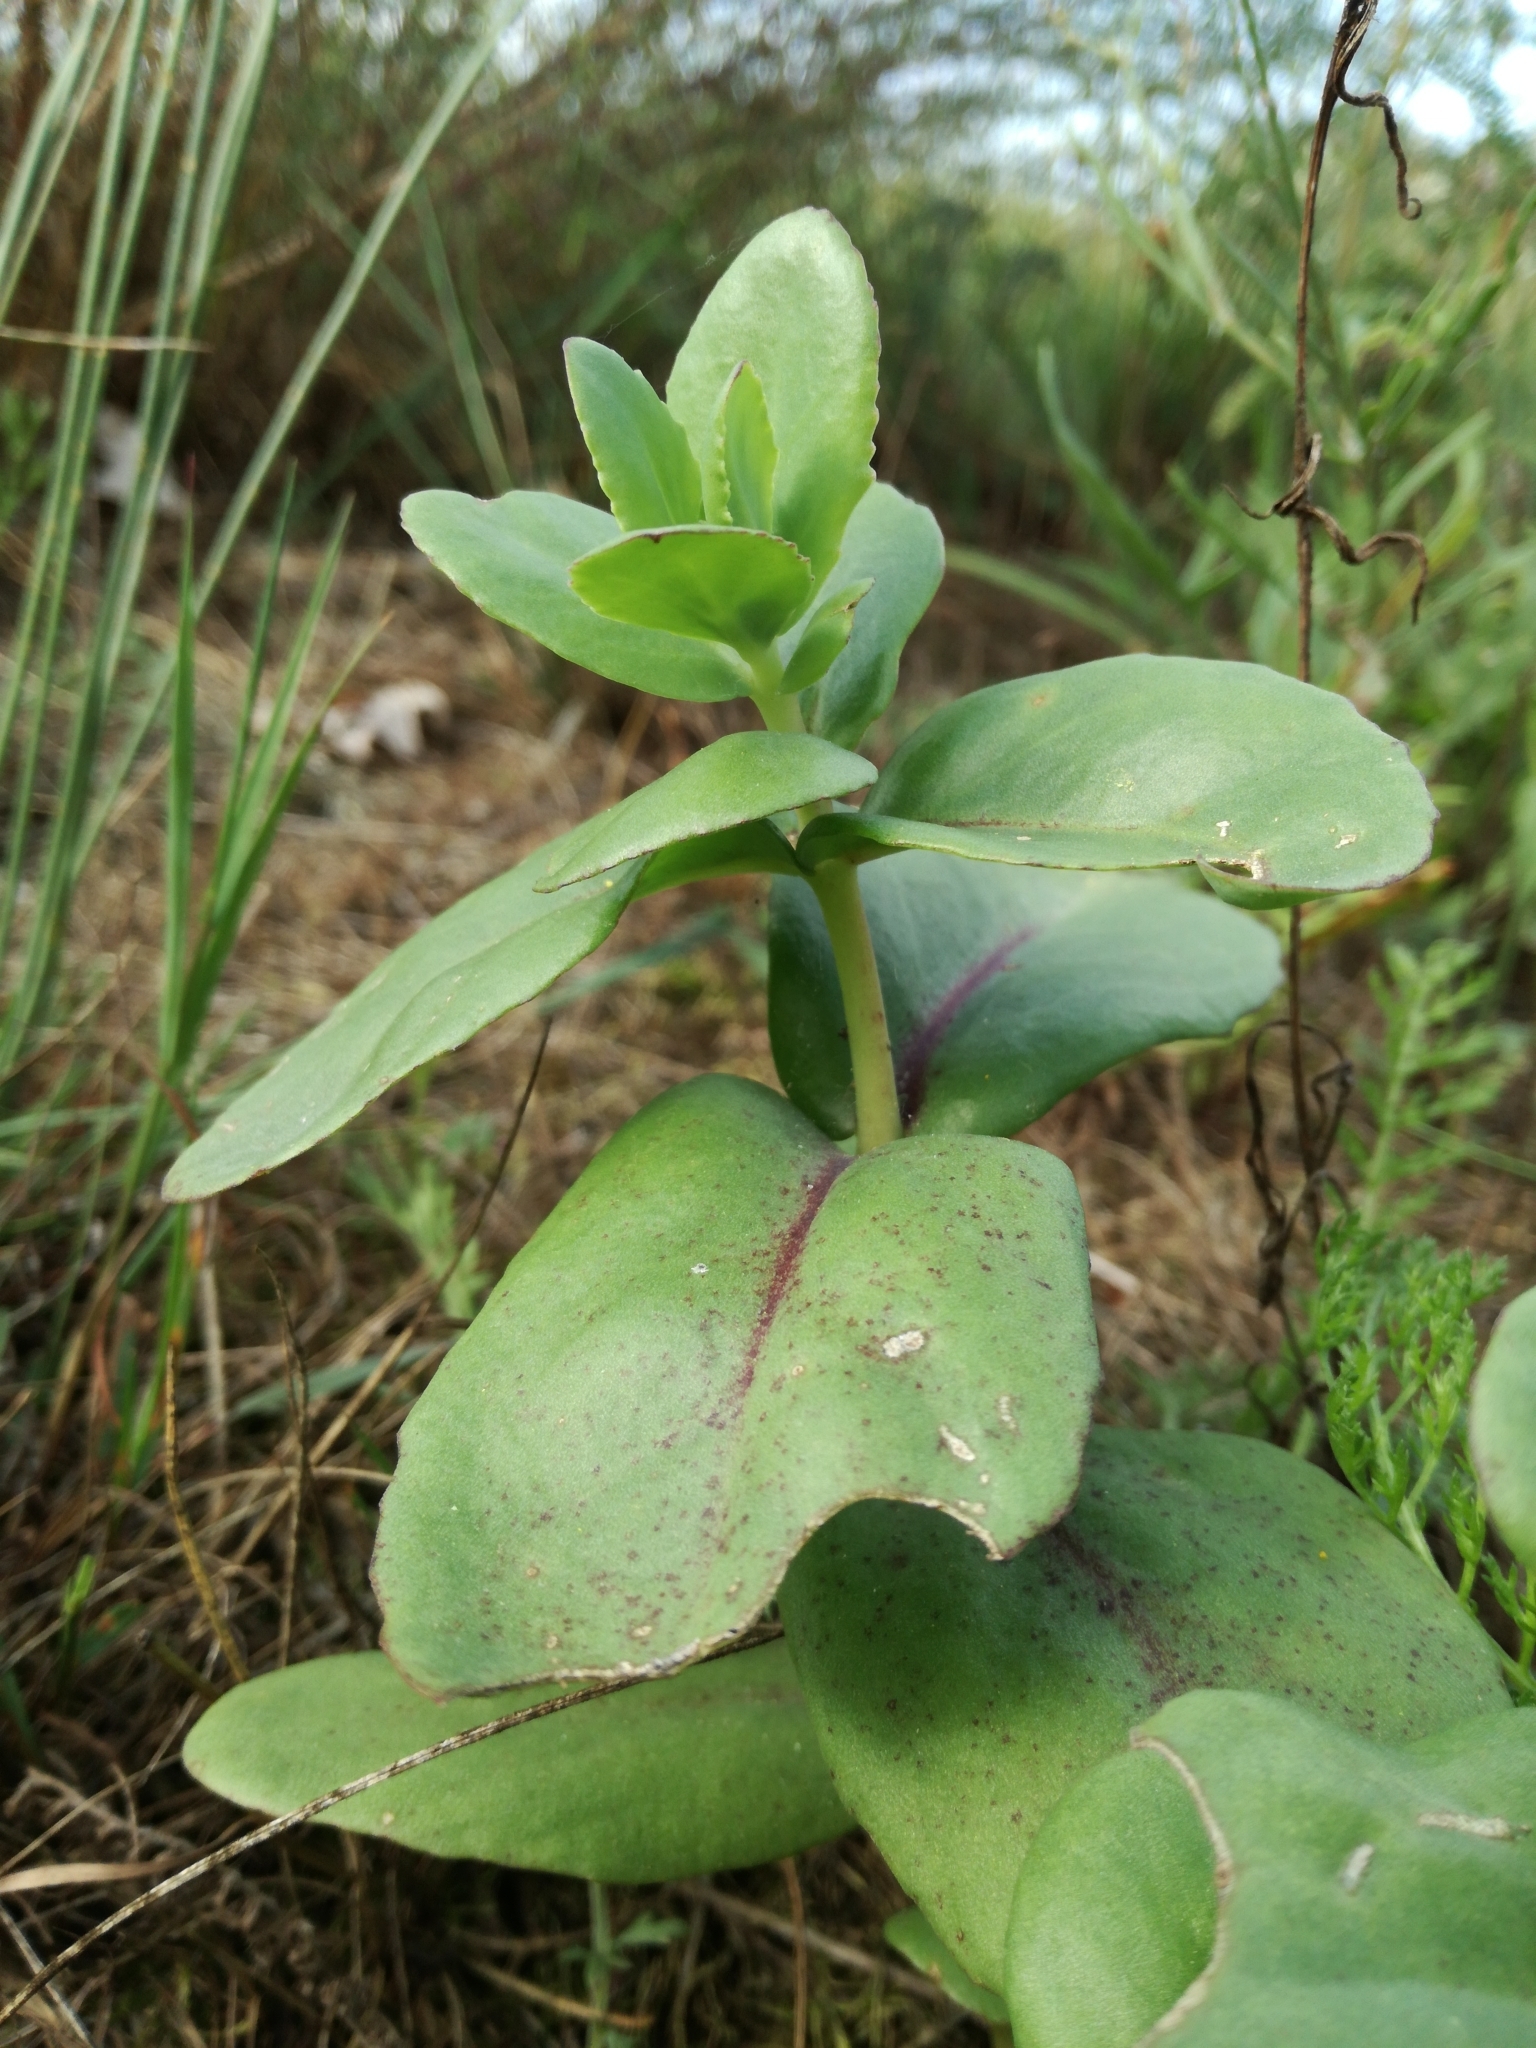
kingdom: Plantae
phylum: Tracheophyta
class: Magnoliopsida
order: Saxifragales
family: Crassulaceae
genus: Hylotelephium
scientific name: Hylotelephium maximum
